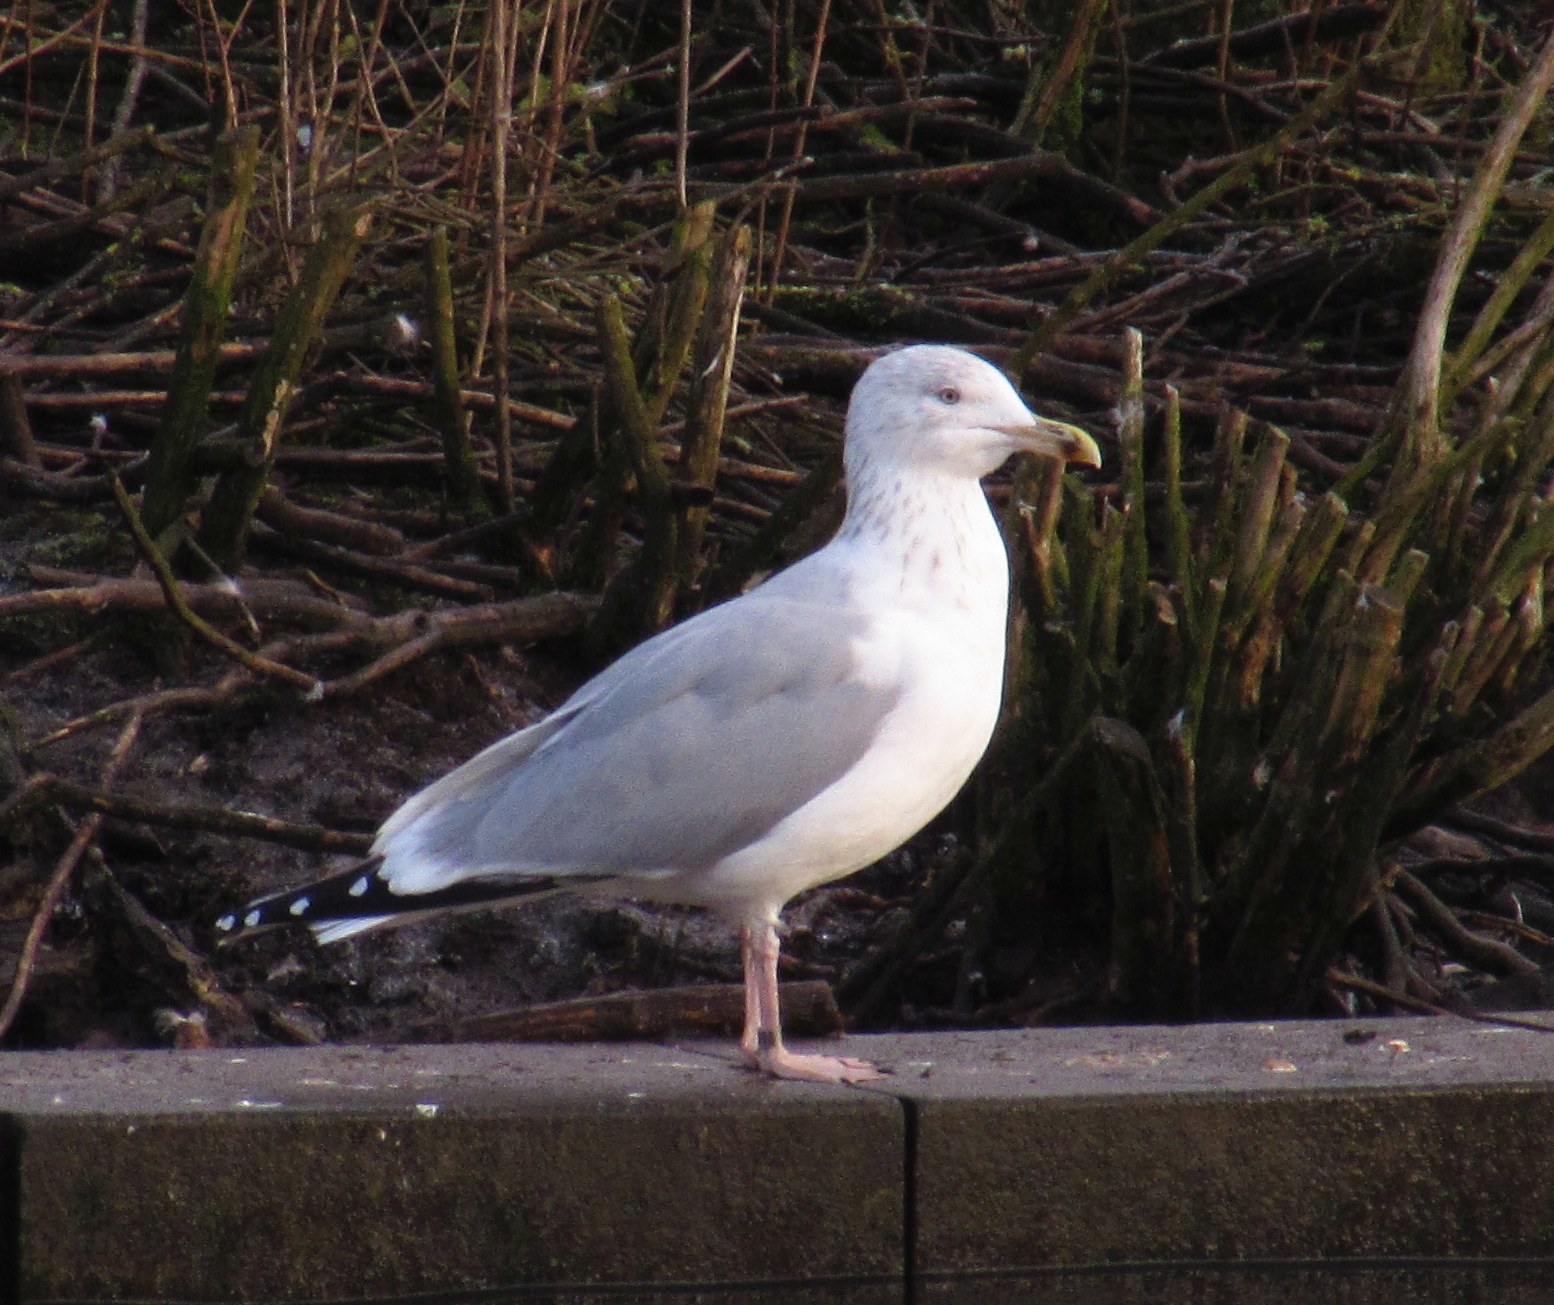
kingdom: Animalia
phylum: Chordata
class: Aves
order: Charadriiformes
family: Laridae
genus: Larus
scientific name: Larus argentatus
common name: Herring gull
